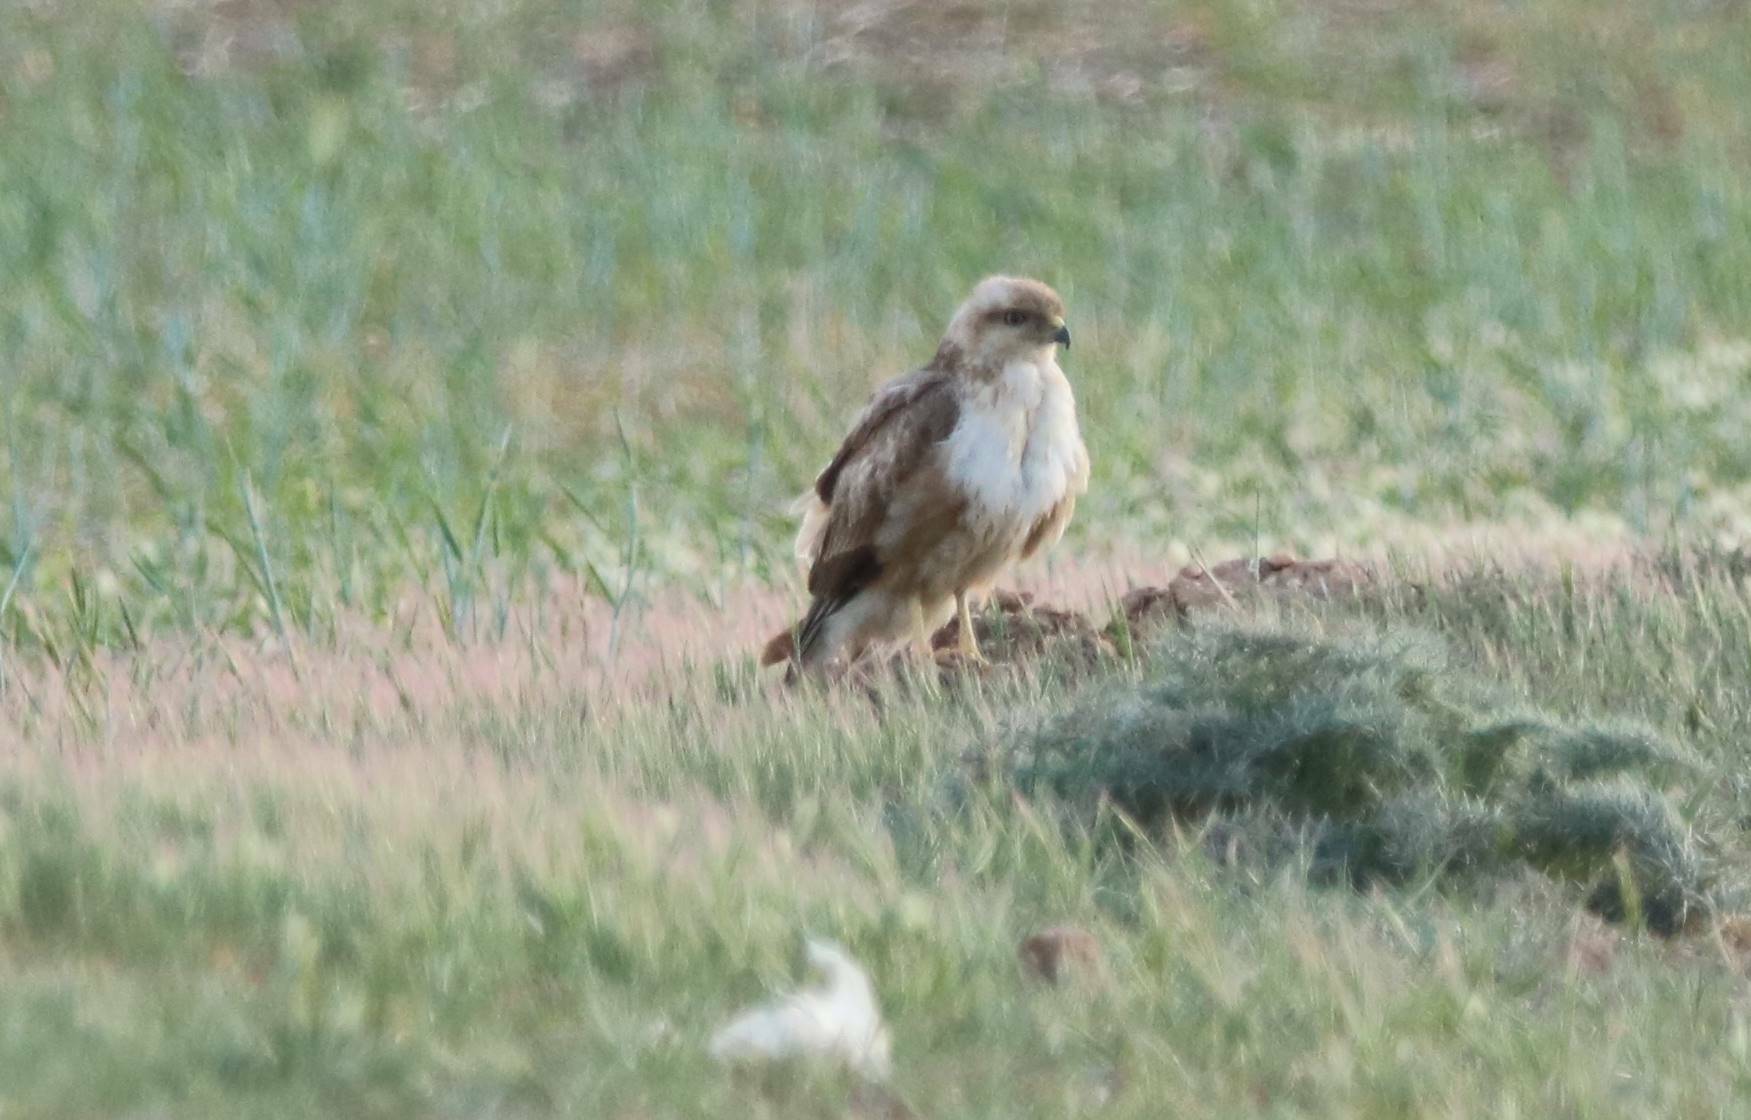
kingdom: Animalia
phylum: Chordata
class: Aves
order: Accipitriformes
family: Accipitridae
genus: Buteo
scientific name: Buteo rufinus
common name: Long-legged buzzard
